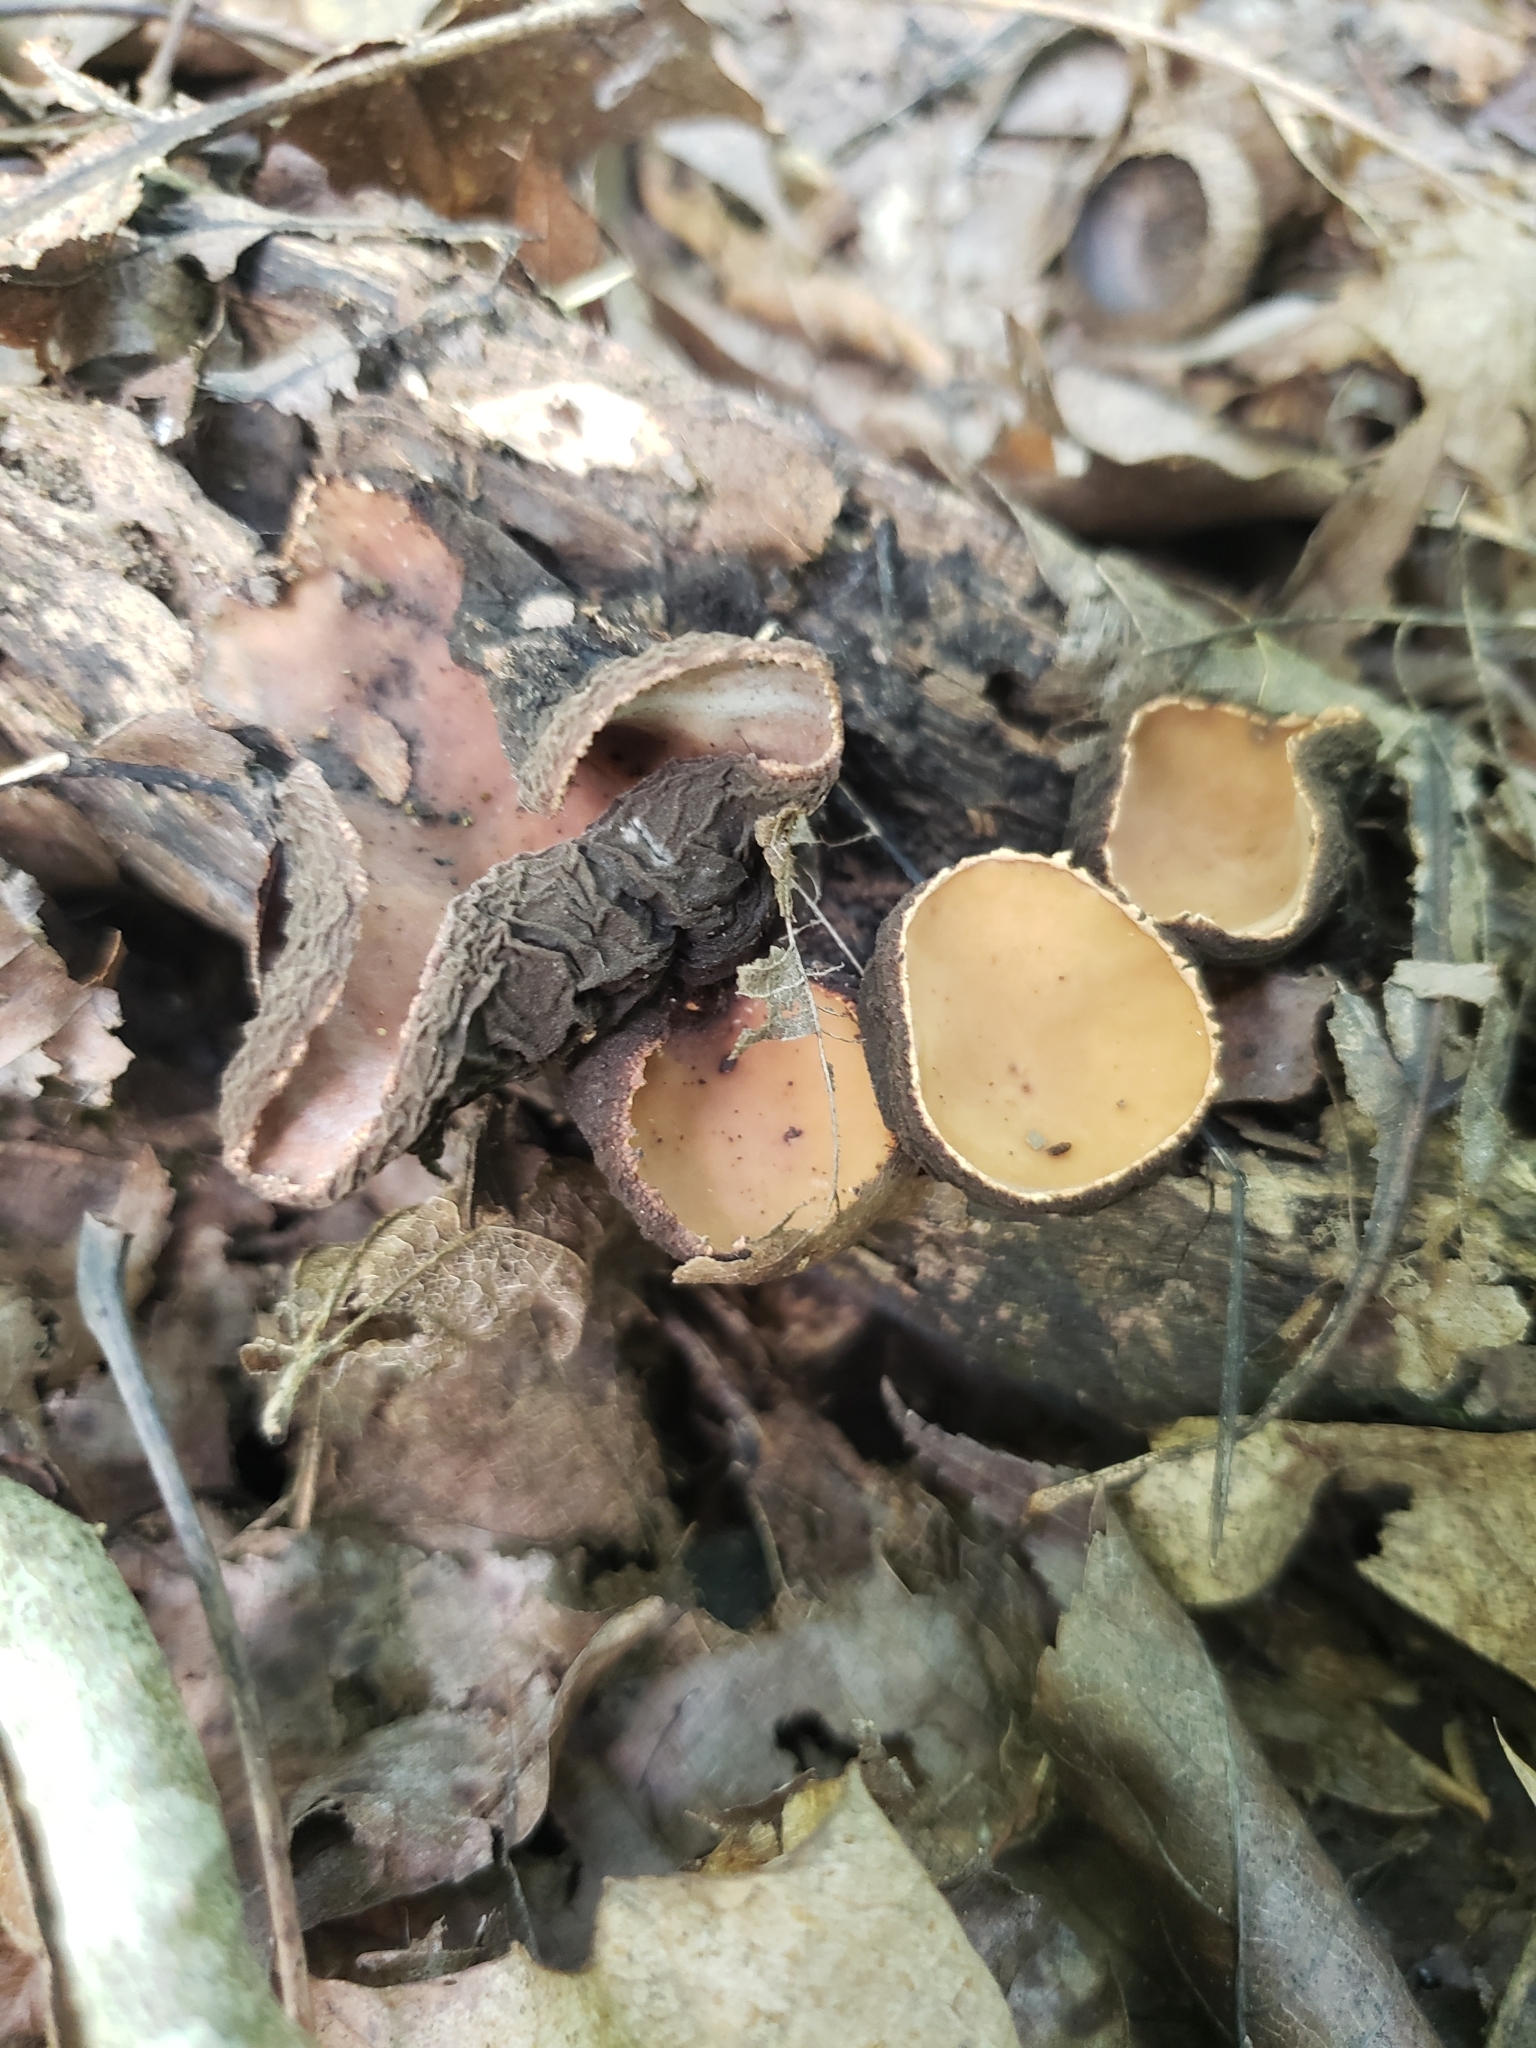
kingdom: Fungi
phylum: Ascomycota
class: Pezizomycetes
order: Pezizales
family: Sarcosomataceae
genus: Galiella
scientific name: Galiella rufa
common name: Hairy rubber cup
